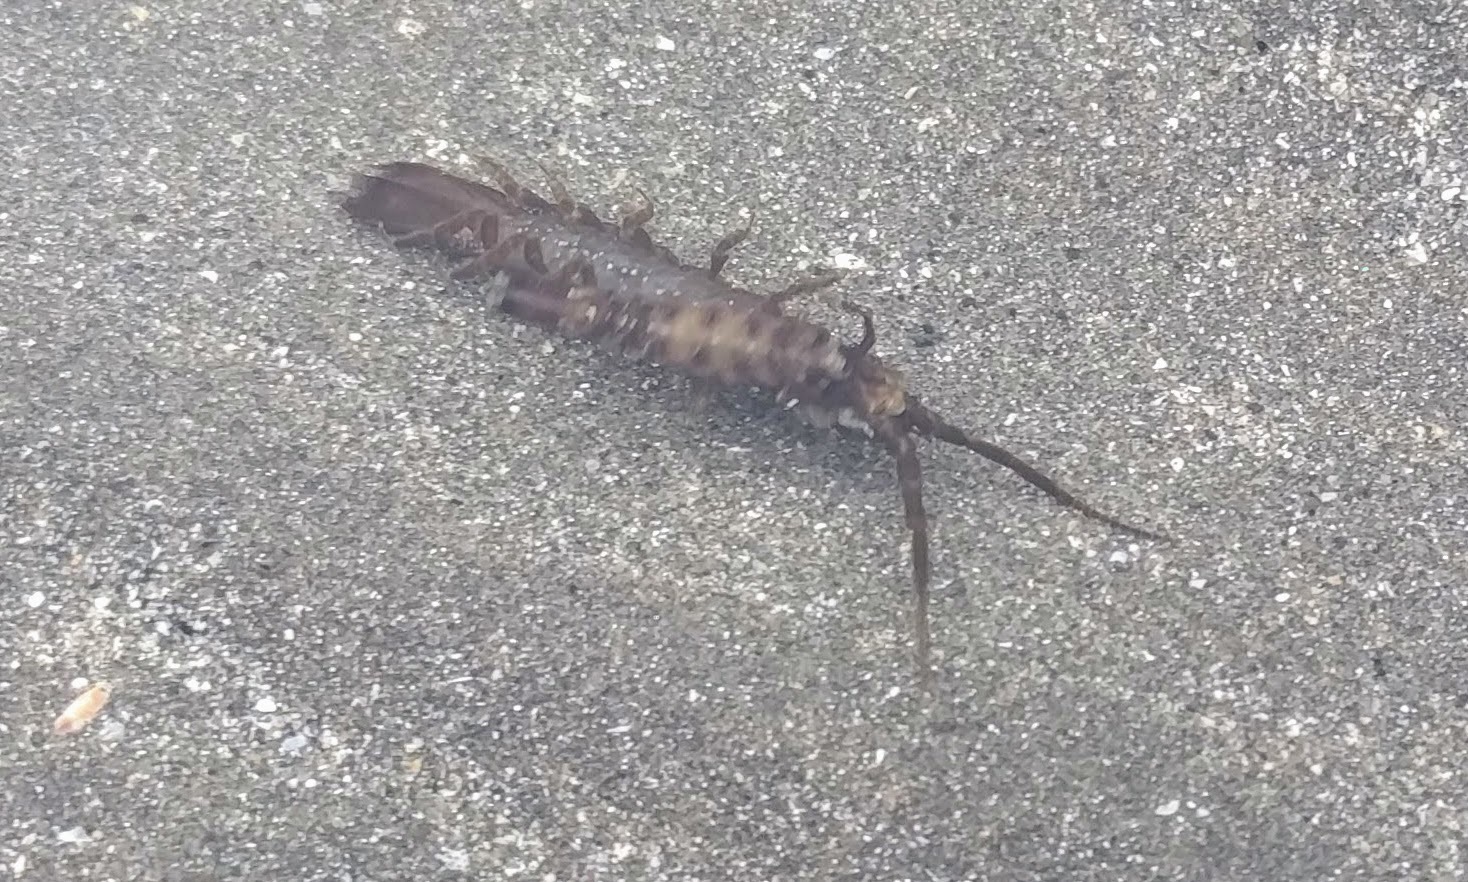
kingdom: Animalia
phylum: Arthropoda
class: Malacostraca
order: Isopoda
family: Idoteidae
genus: Idotea
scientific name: Idotea fewkesi
